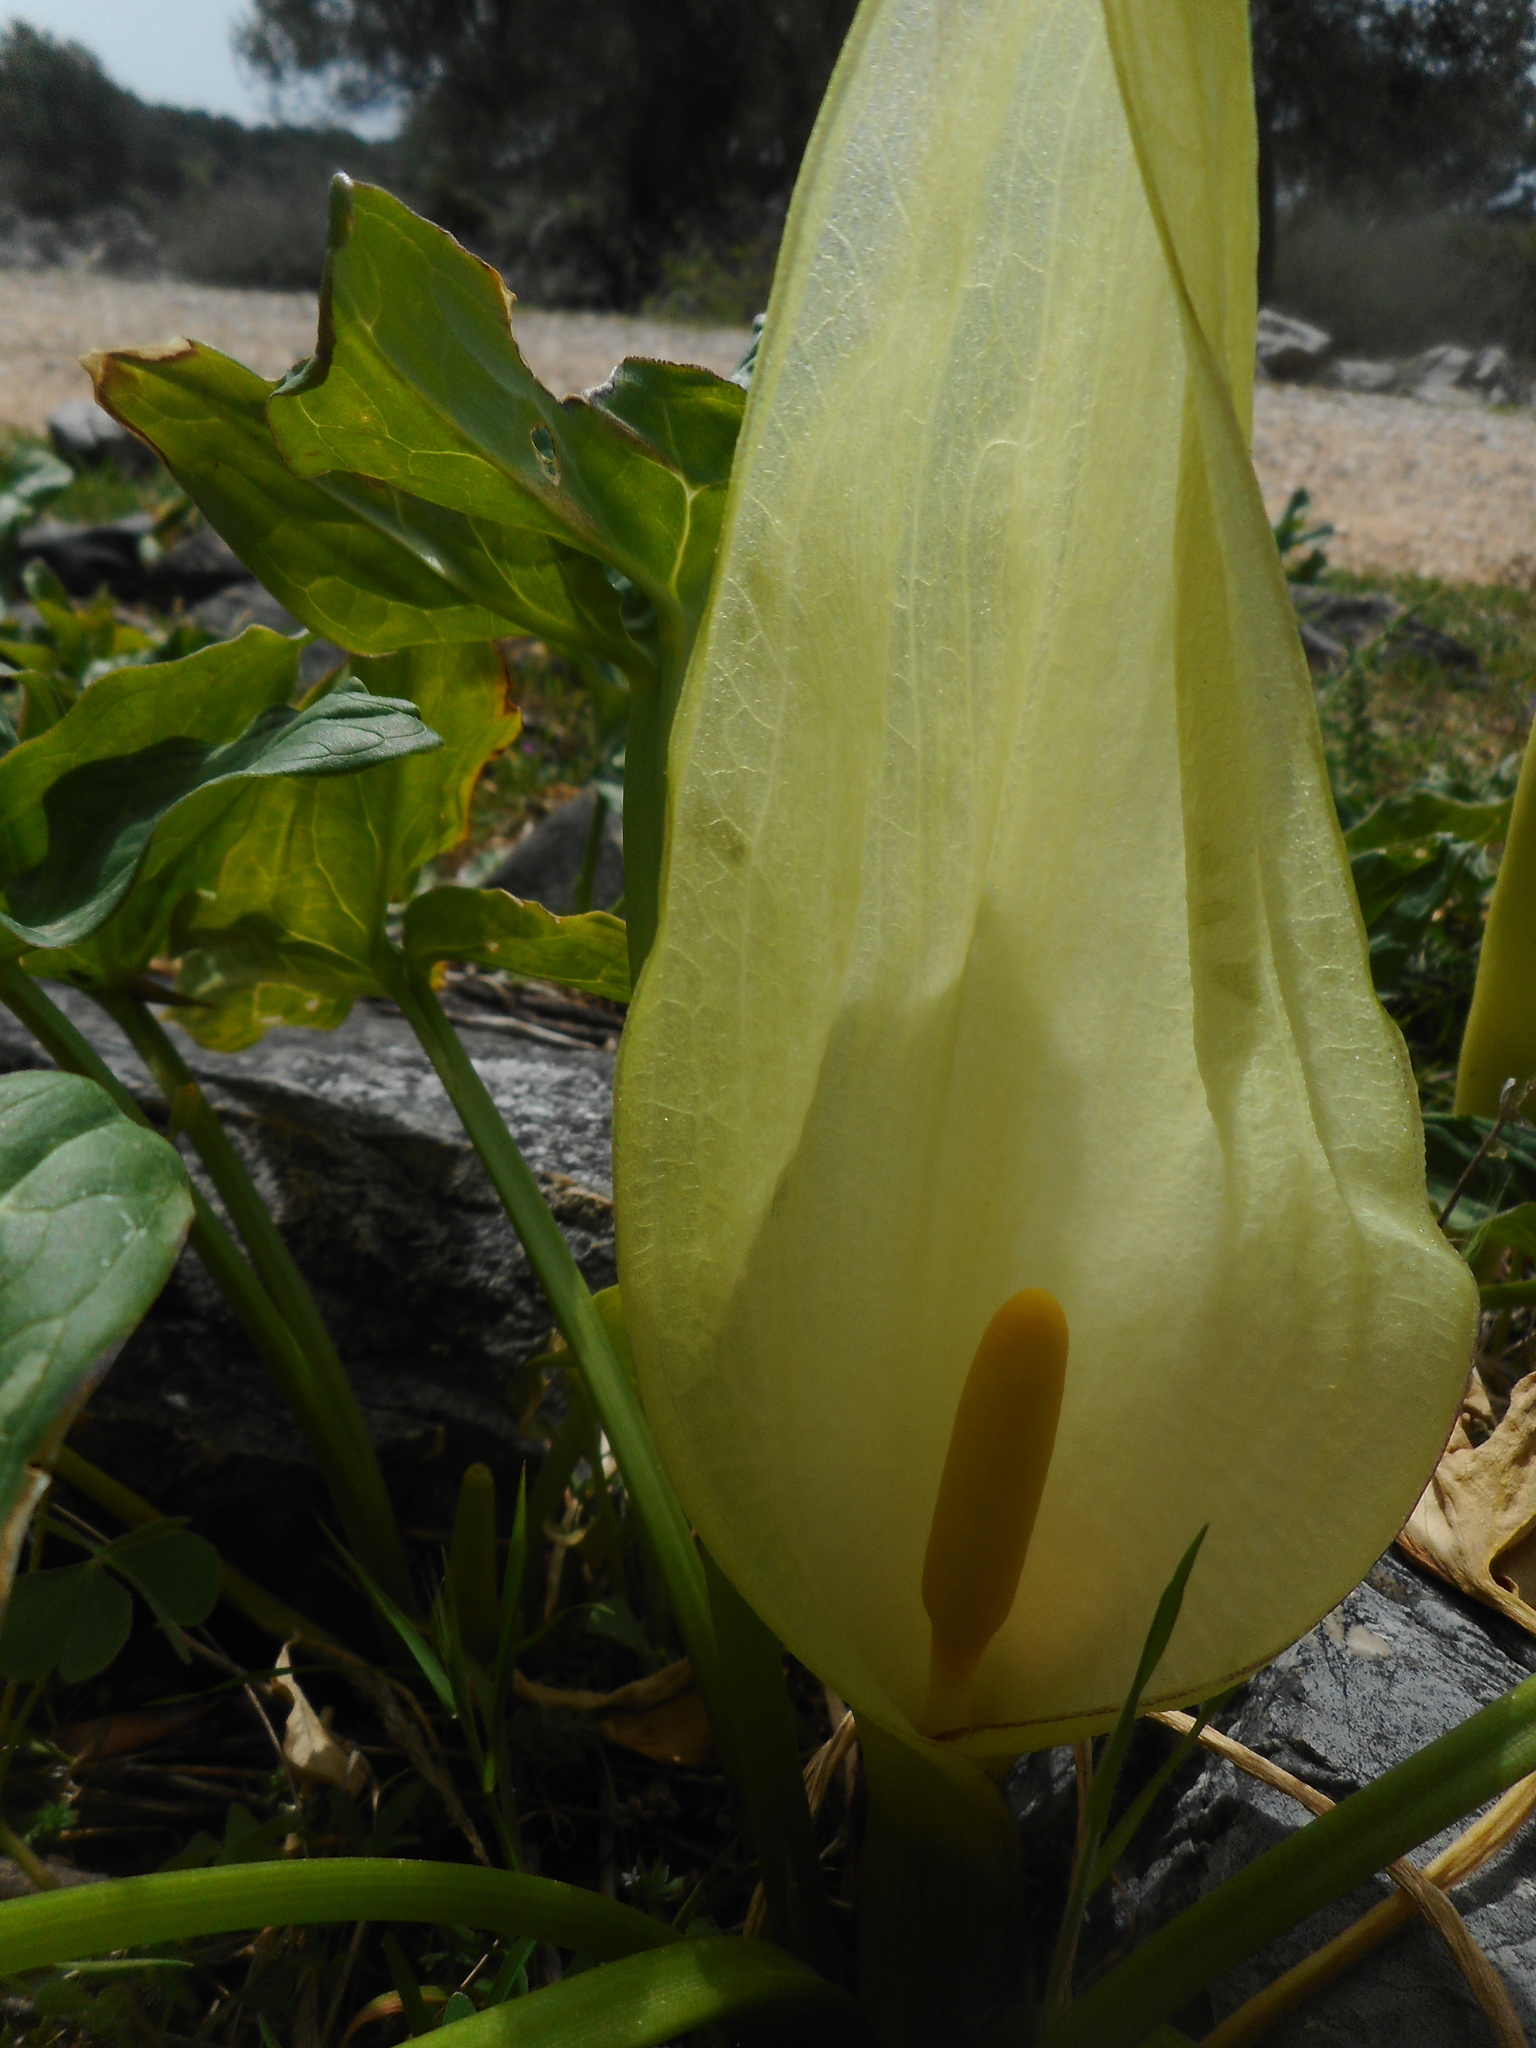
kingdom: Plantae
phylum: Tracheophyta
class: Liliopsida
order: Alismatales
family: Araceae
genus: Arum
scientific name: Arum italicum
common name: Italian lords-and-ladies
